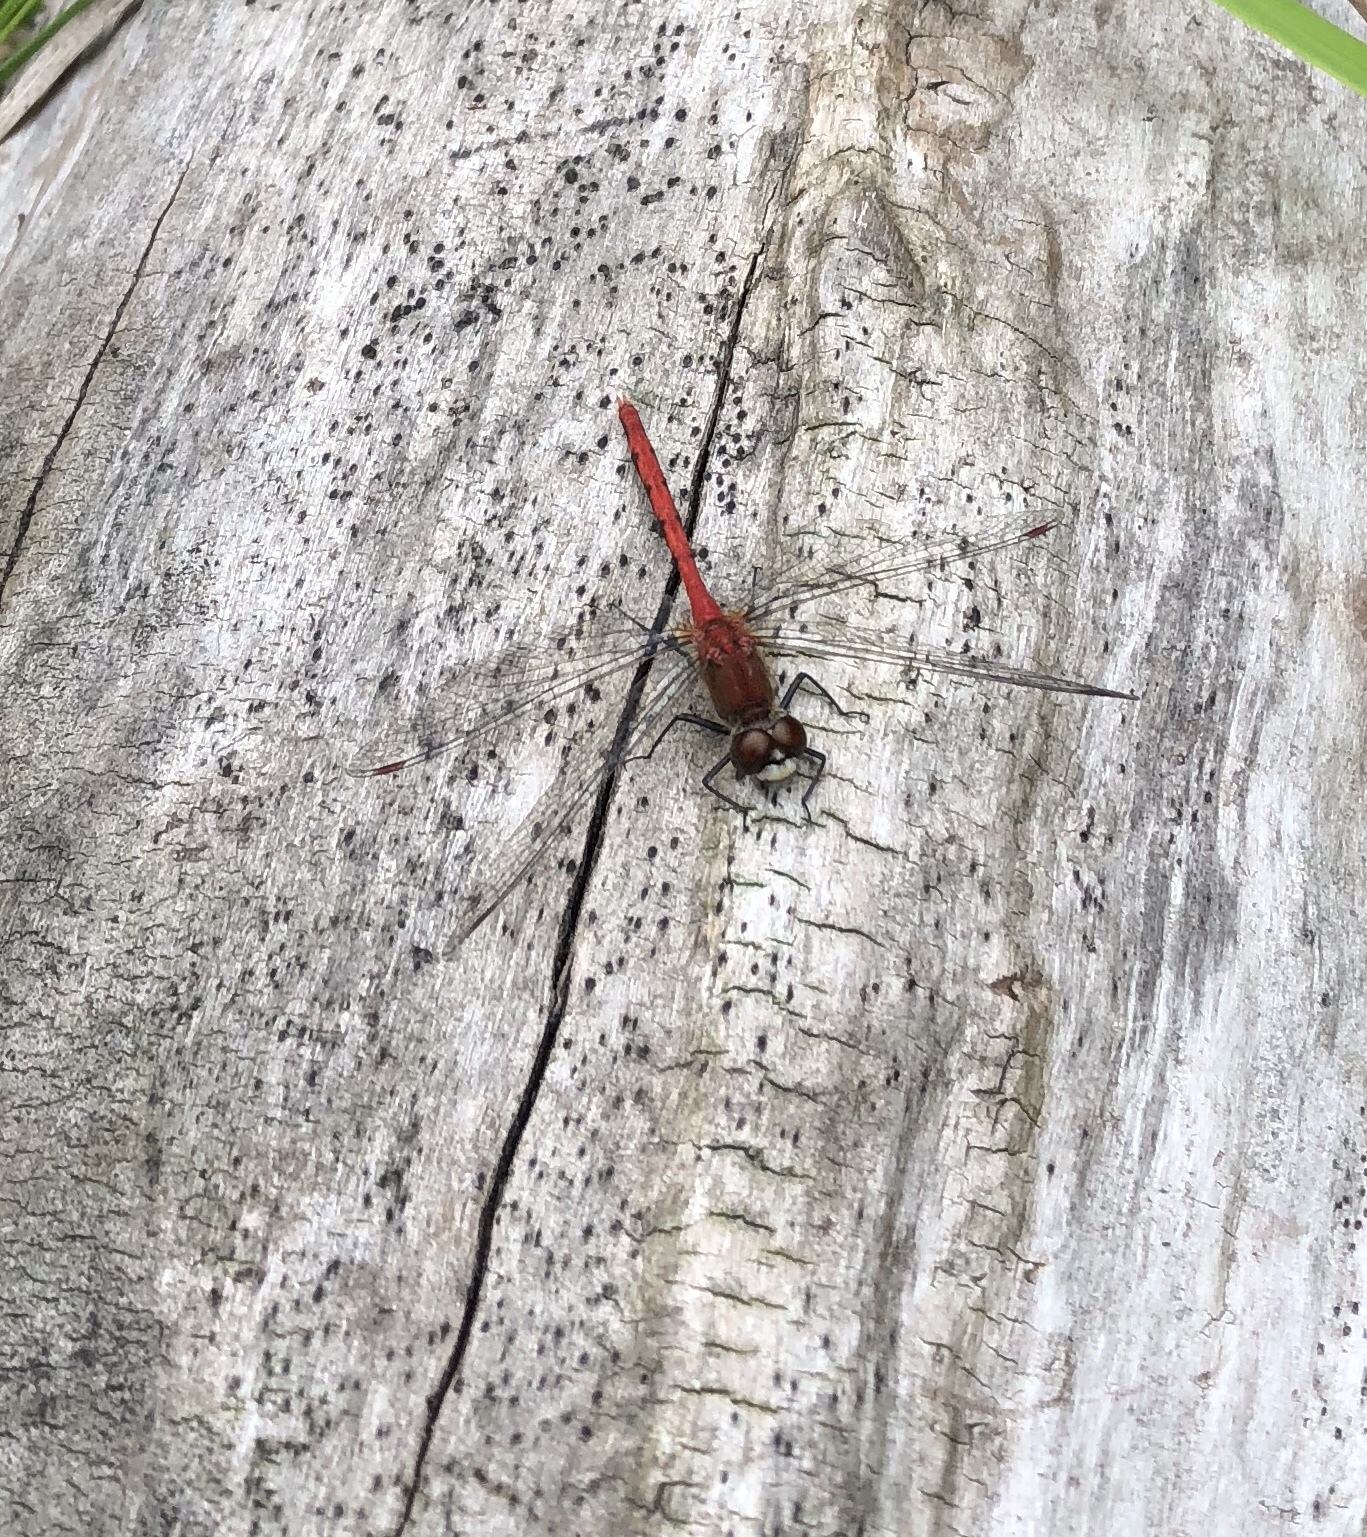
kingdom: Animalia
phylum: Arthropoda
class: Insecta
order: Odonata
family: Libellulidae
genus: Sympetrum
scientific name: Sympetrum obtrusum
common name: White-faced meadowhawk
